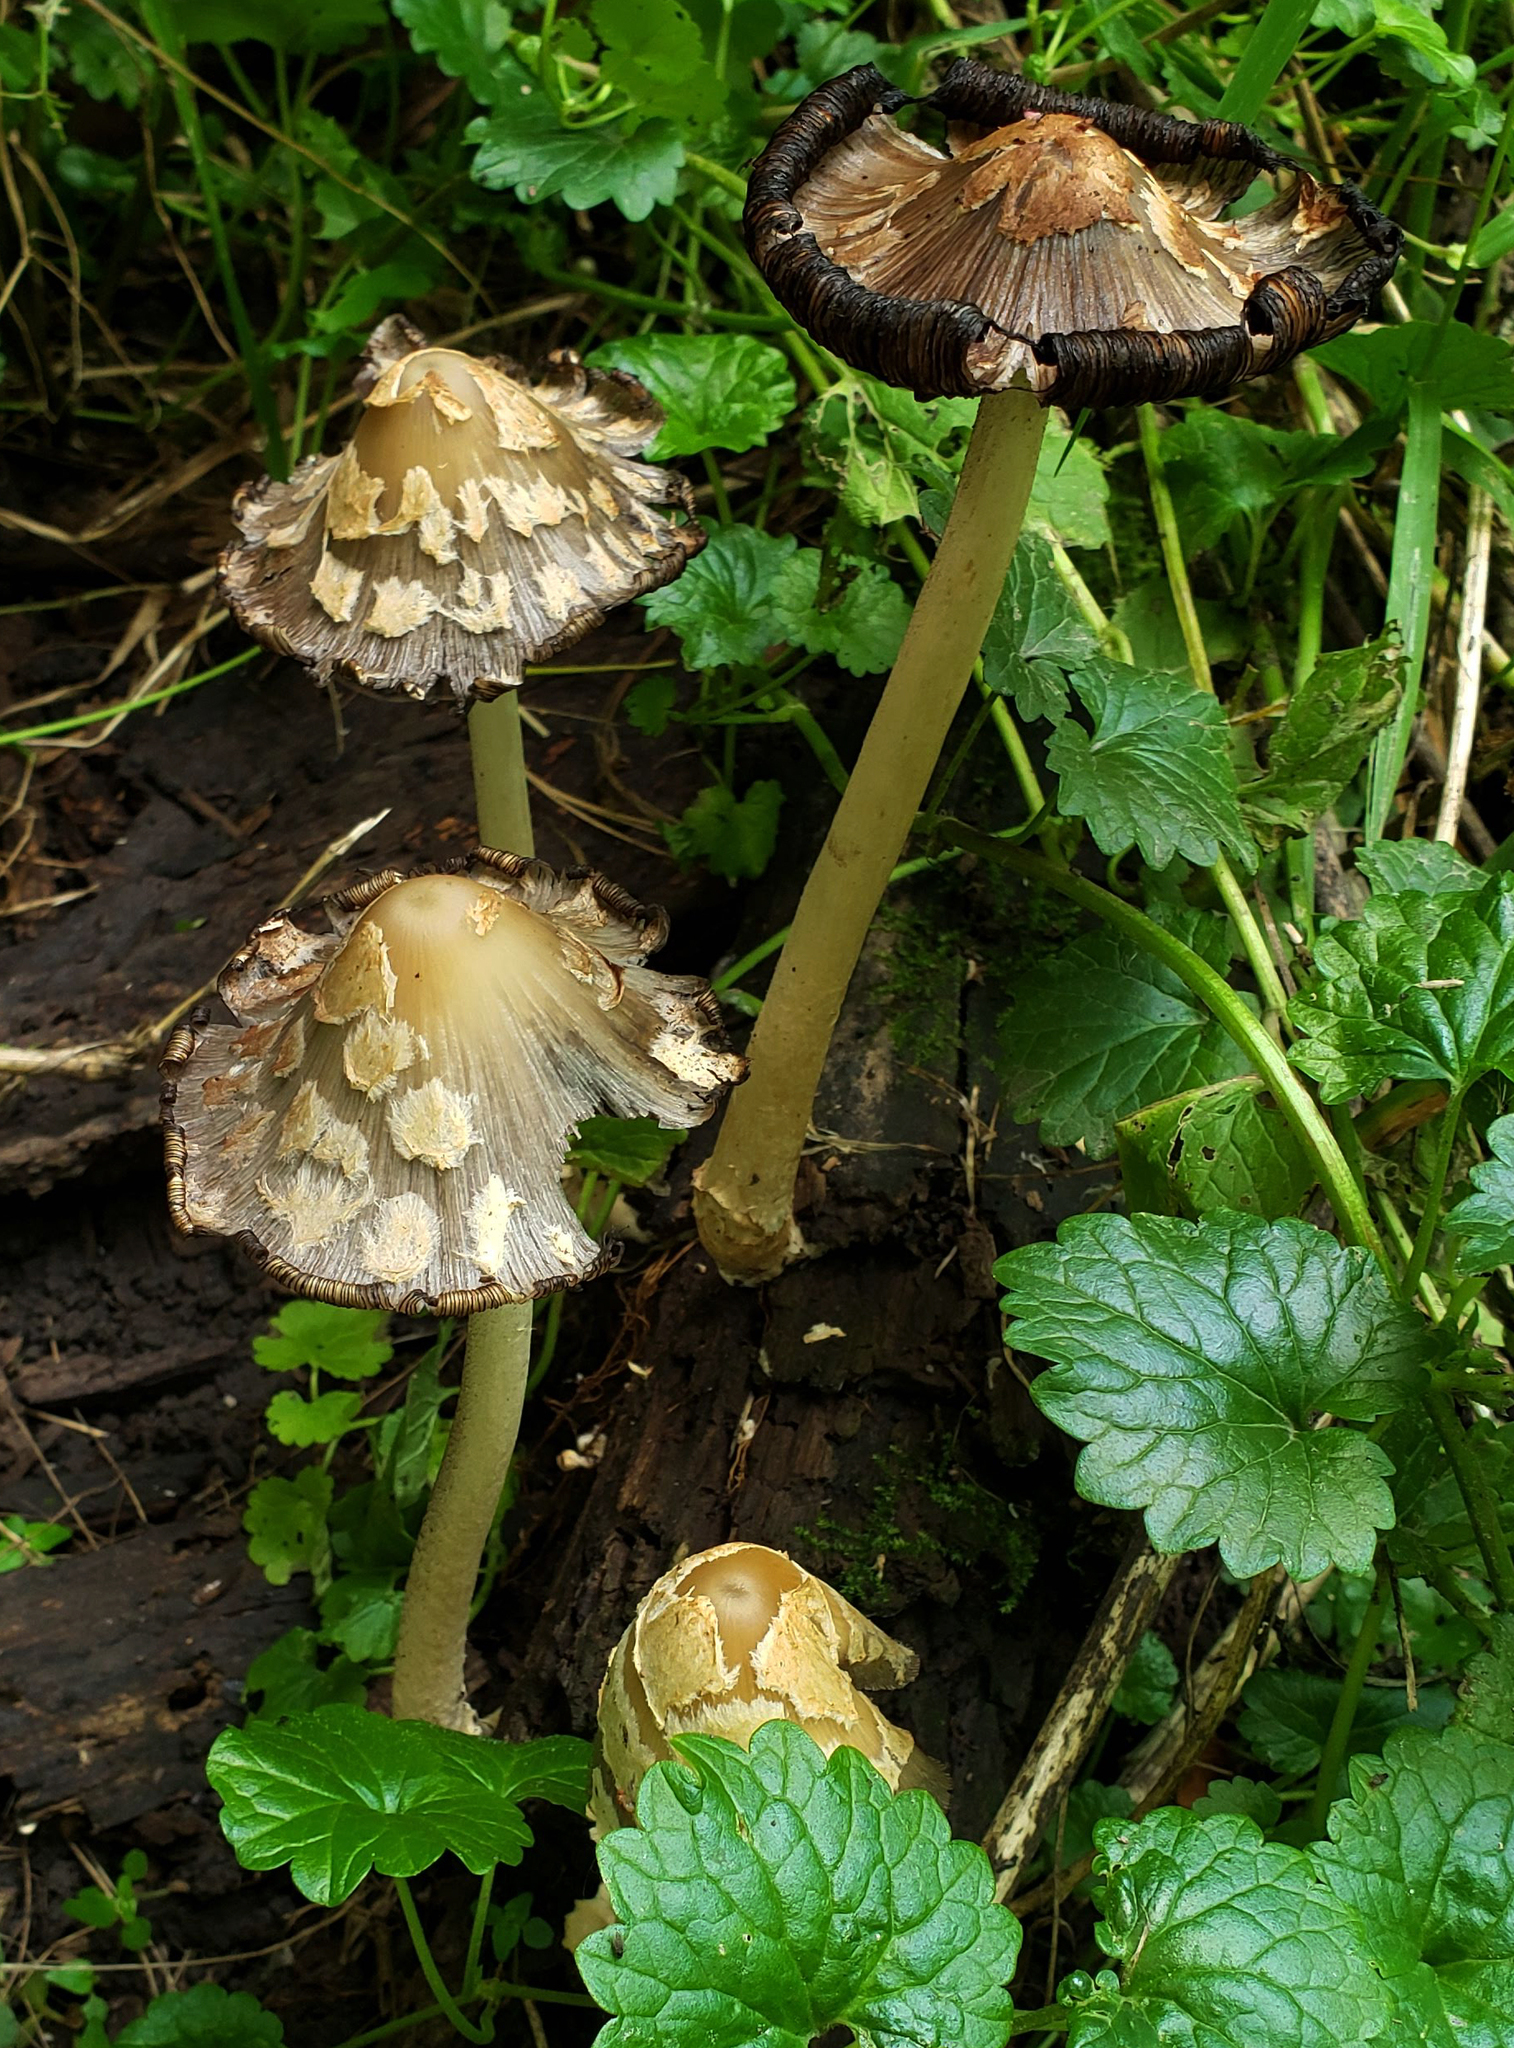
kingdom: Fungi
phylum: Basidiomycota
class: Agaricomycetes
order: Agaricales
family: Psathyrellaceae
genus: Coprinopsis
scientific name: Coprinopsis variegata
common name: Scaly ink cap
